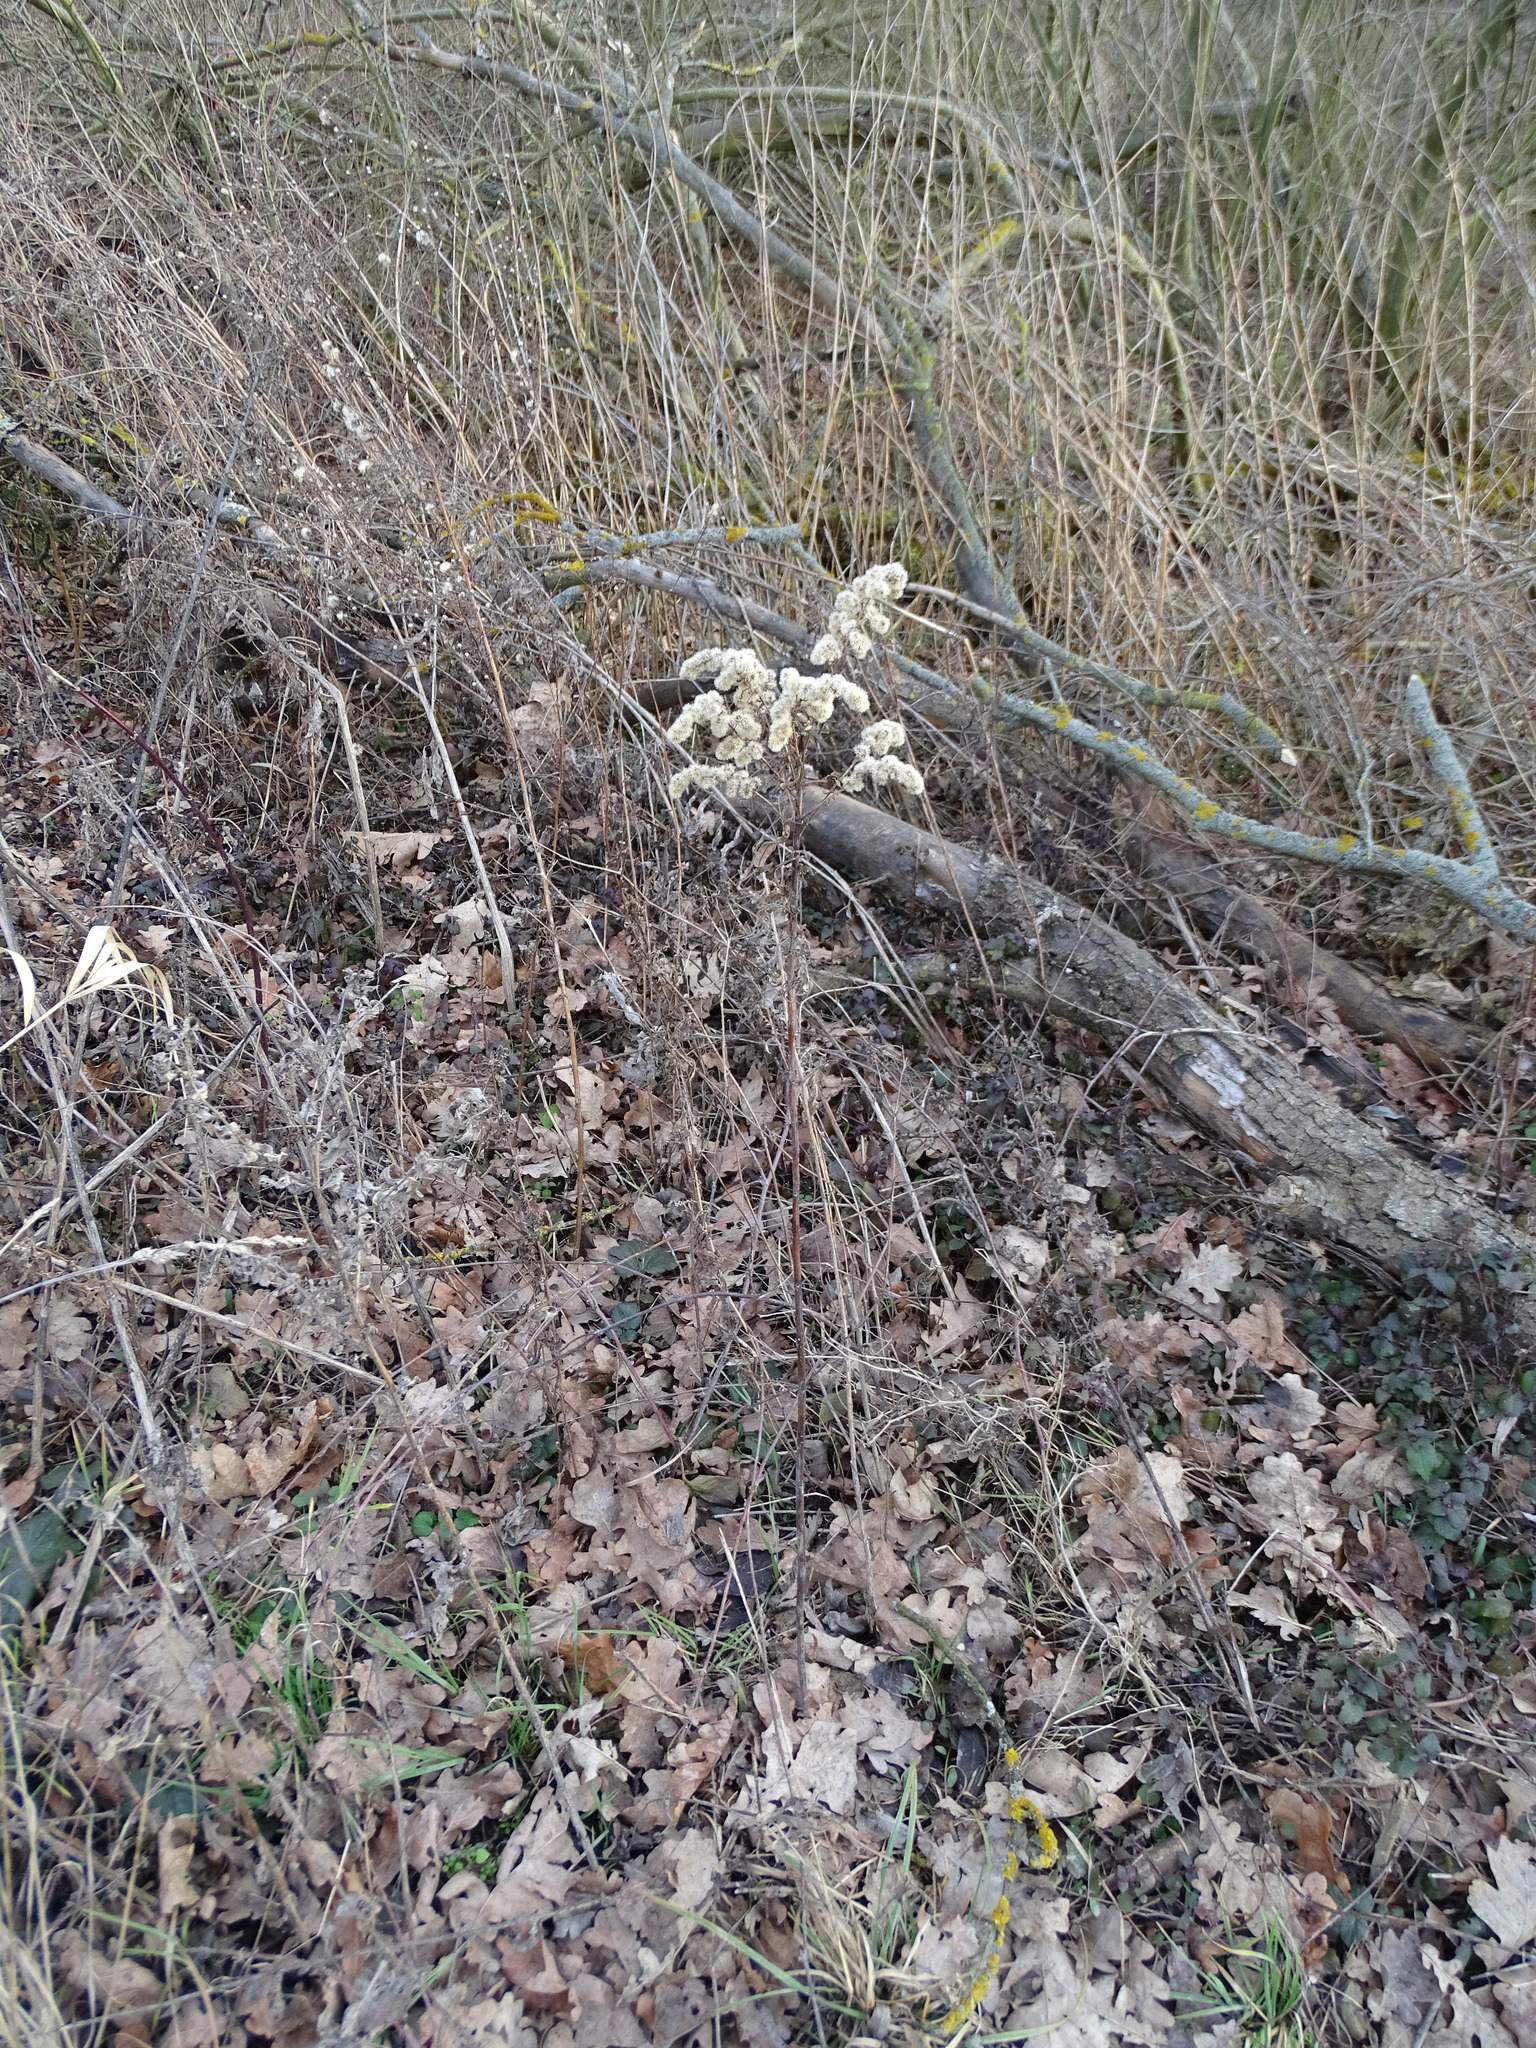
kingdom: Plantae
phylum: Tracheophyta
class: Magnoliopsida
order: Asterales
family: Asteraceae
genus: Solidago
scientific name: Solidago gigantea
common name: Giant goldenrod
